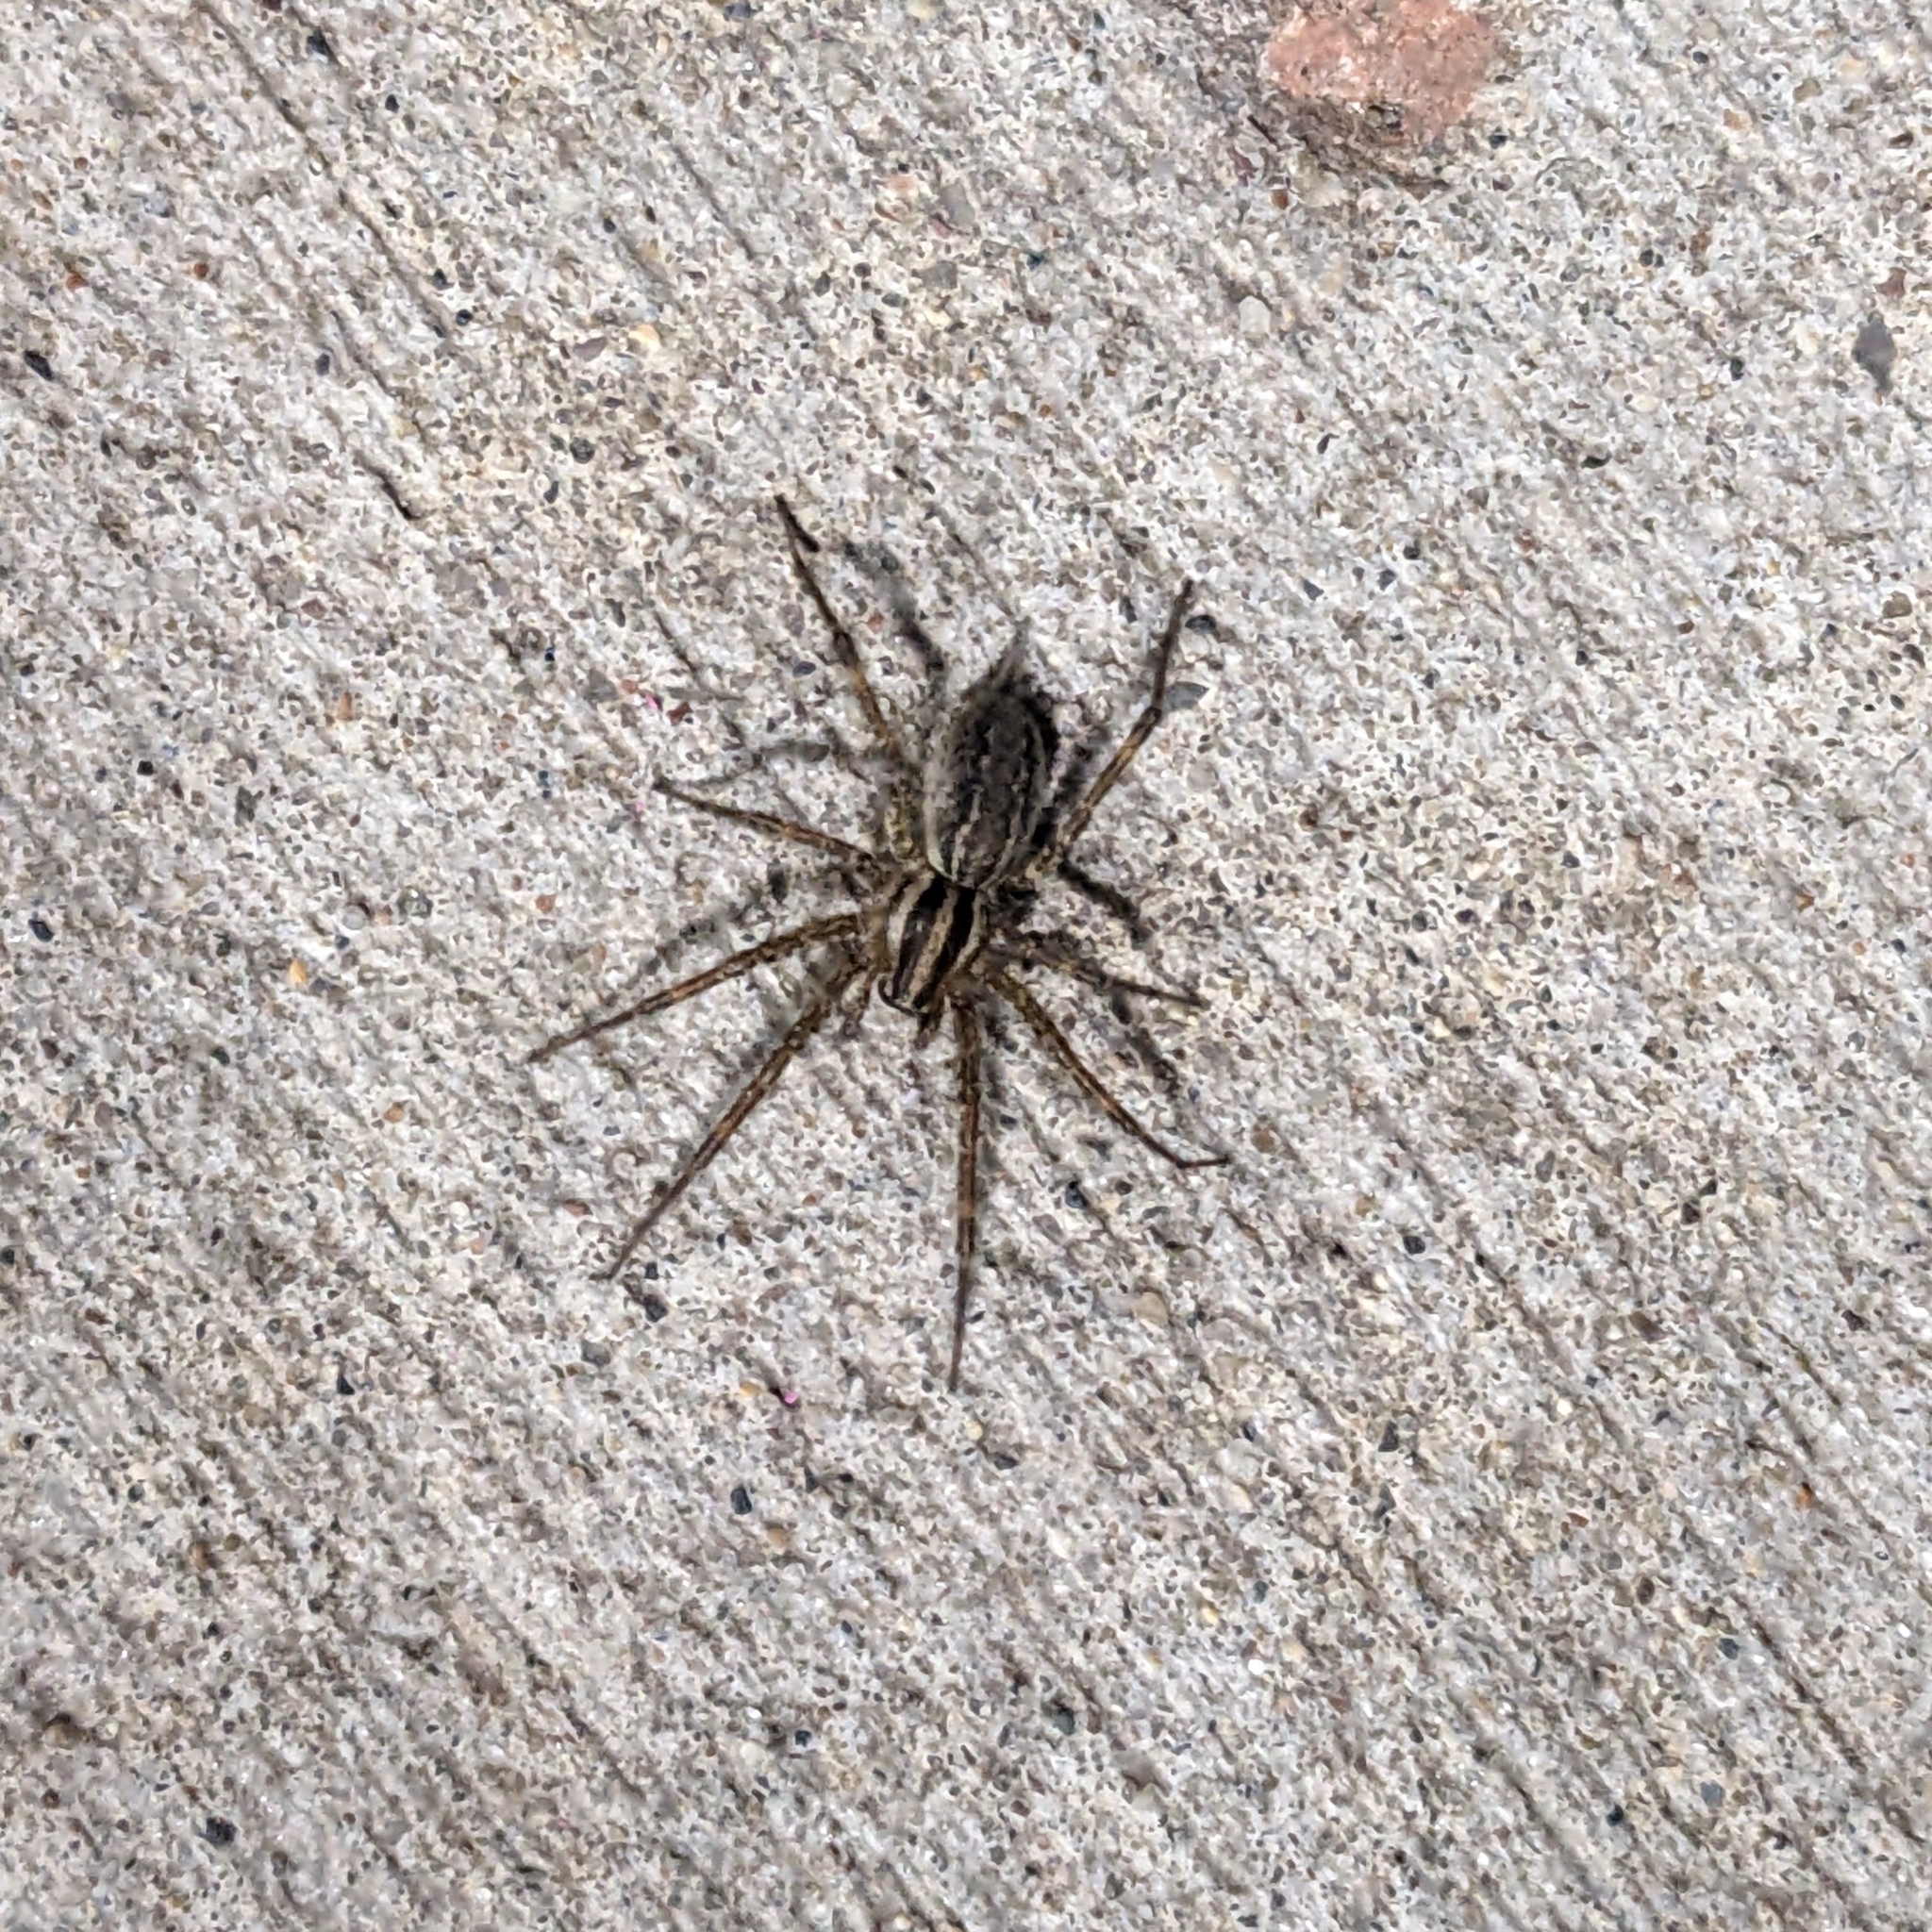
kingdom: Animalia
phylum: Arthropoda
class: Arachnida
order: Araneae
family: Agelenidae
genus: Agelenopsis
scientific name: Agelenopsis
